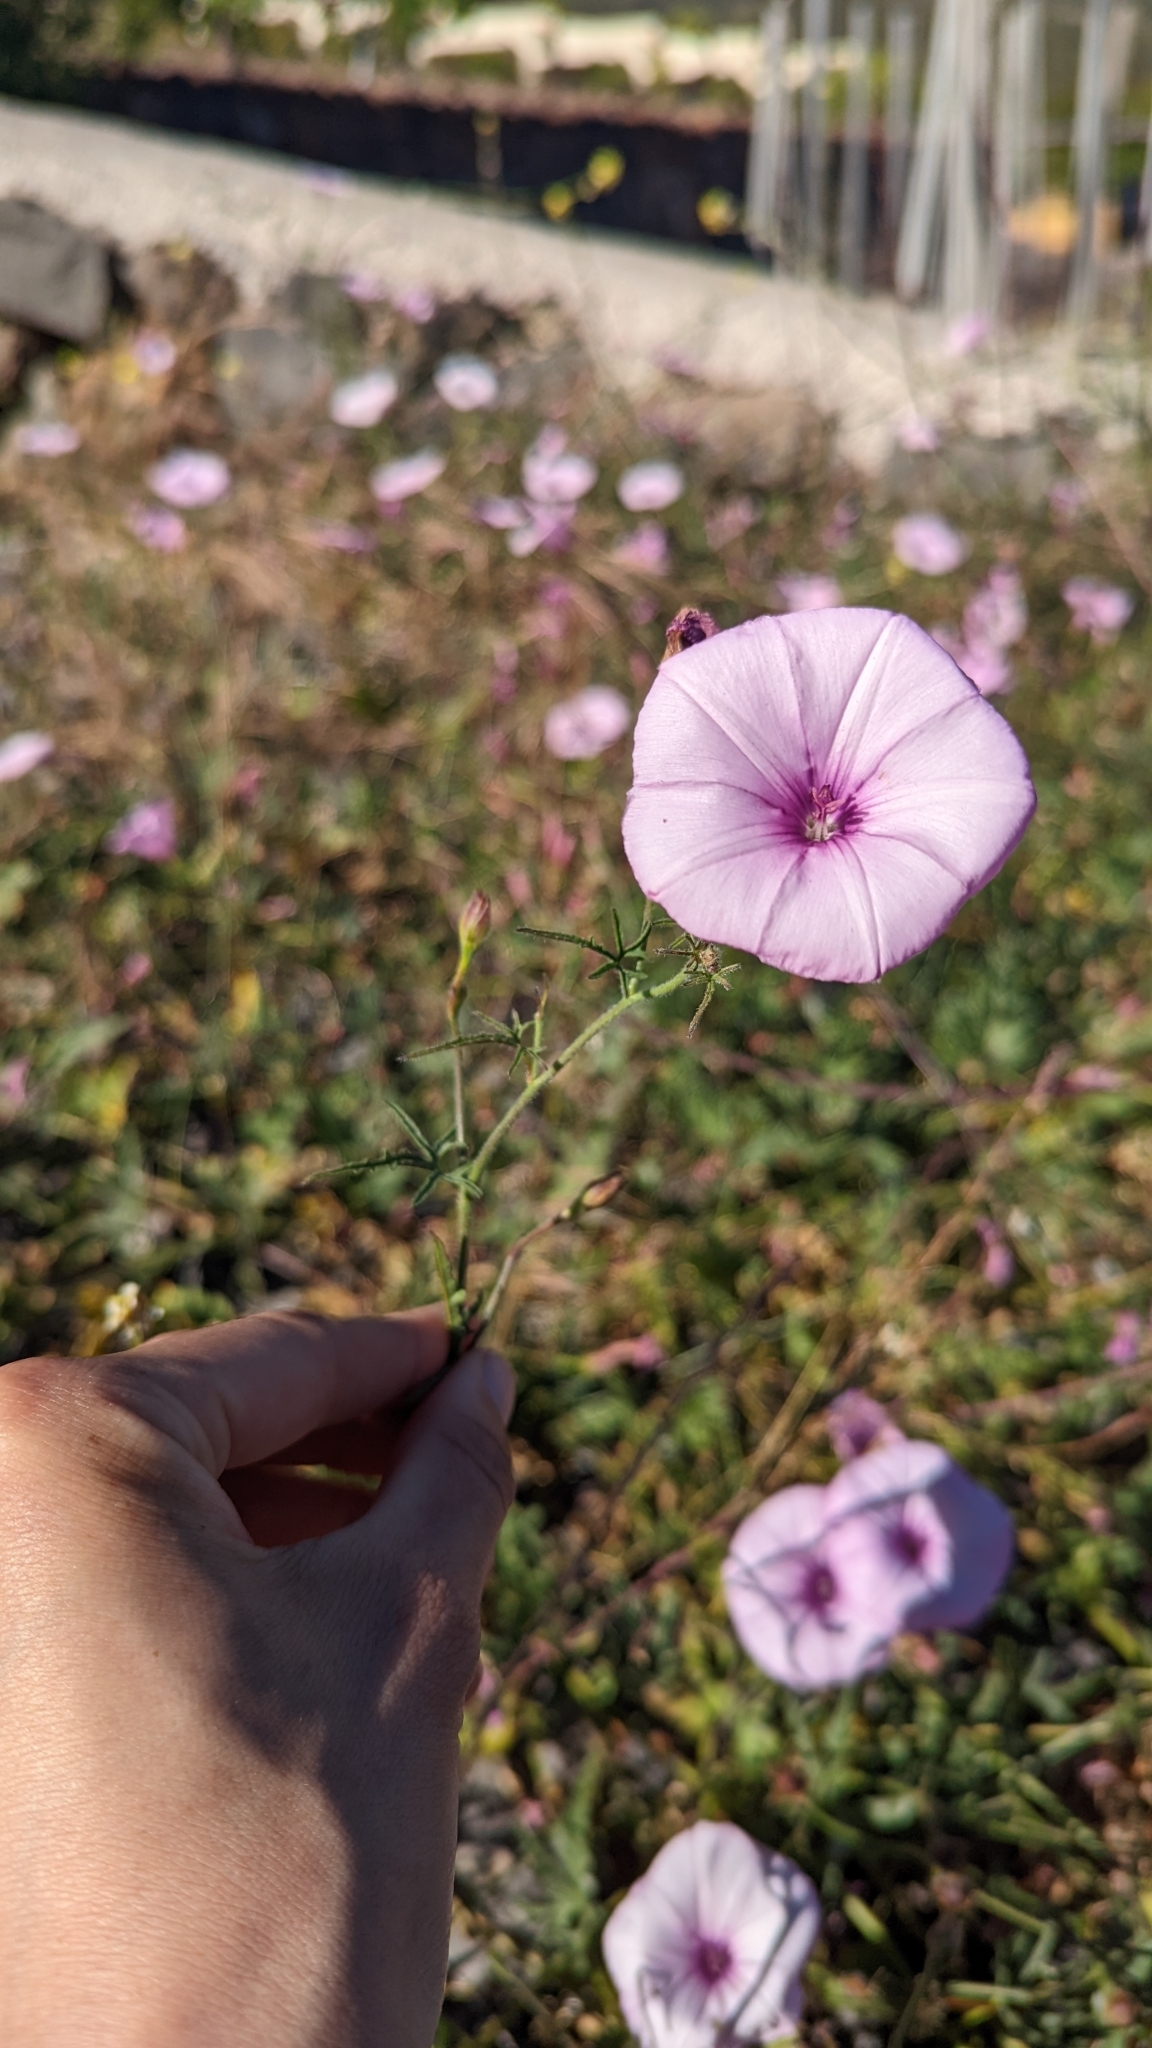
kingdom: Plantae
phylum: Tracheophyta
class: Magnoliopsida
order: Solanales
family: Convolvulaceae
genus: Convolvulus
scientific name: Convolvulus althaeoides
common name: Mallow bindweed
